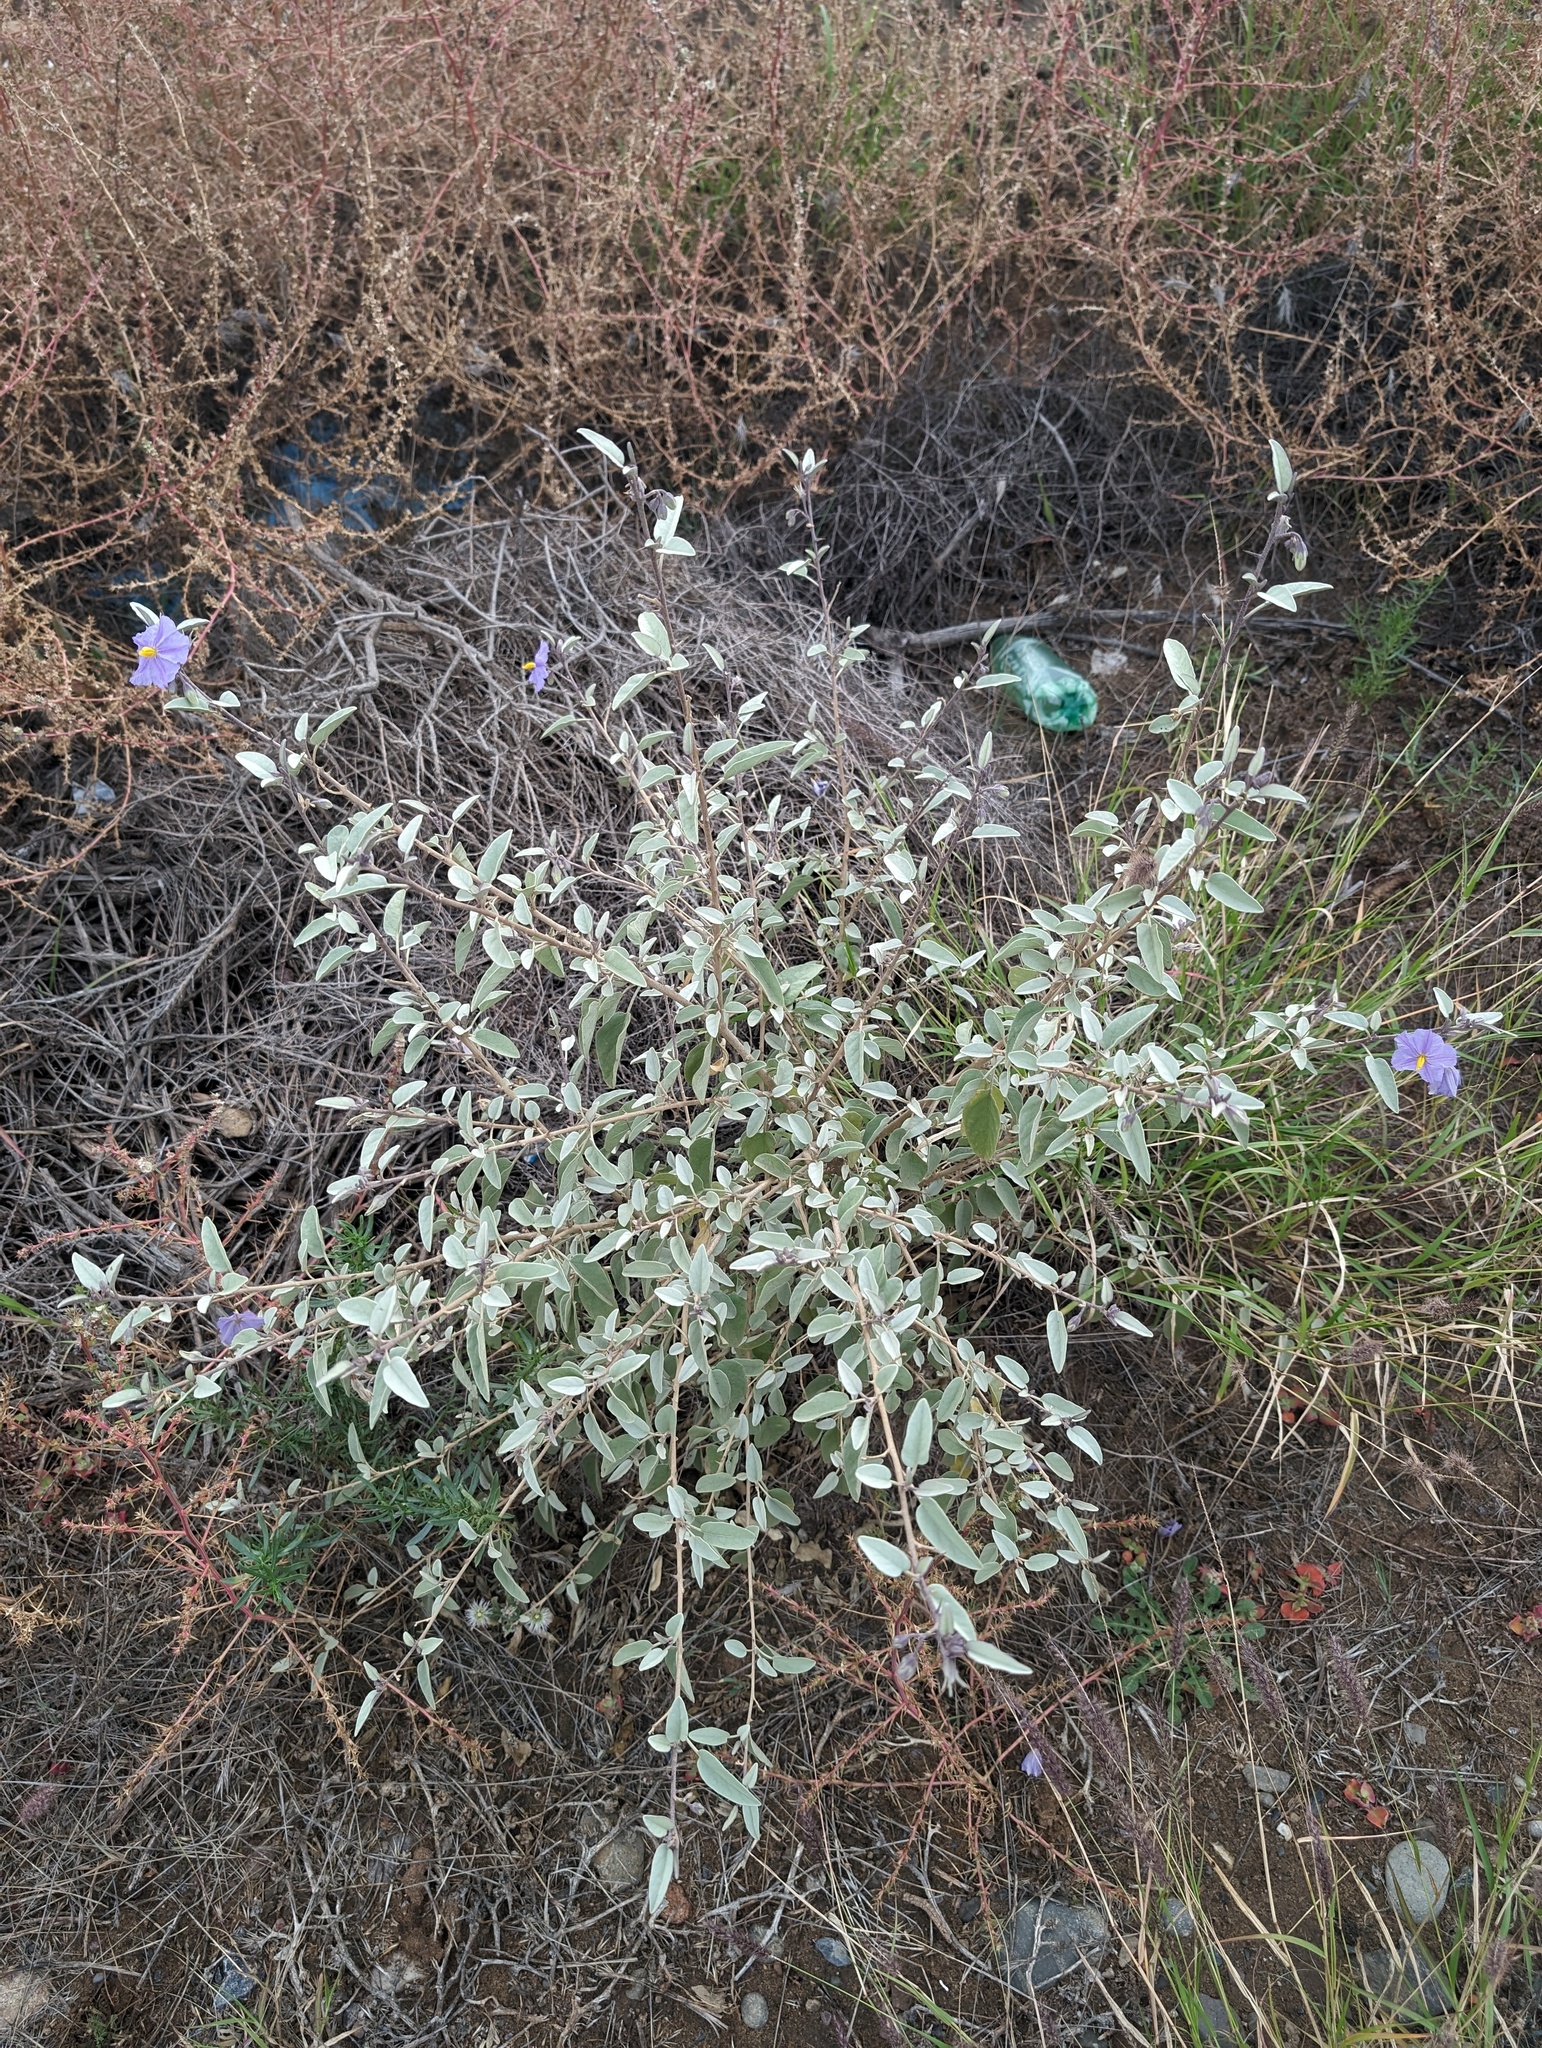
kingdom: Plantae
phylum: Tracheophyta
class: Magnoliopsida
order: Solanales
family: Solanaceae
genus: Solanum
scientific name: Solanum hindsianum
